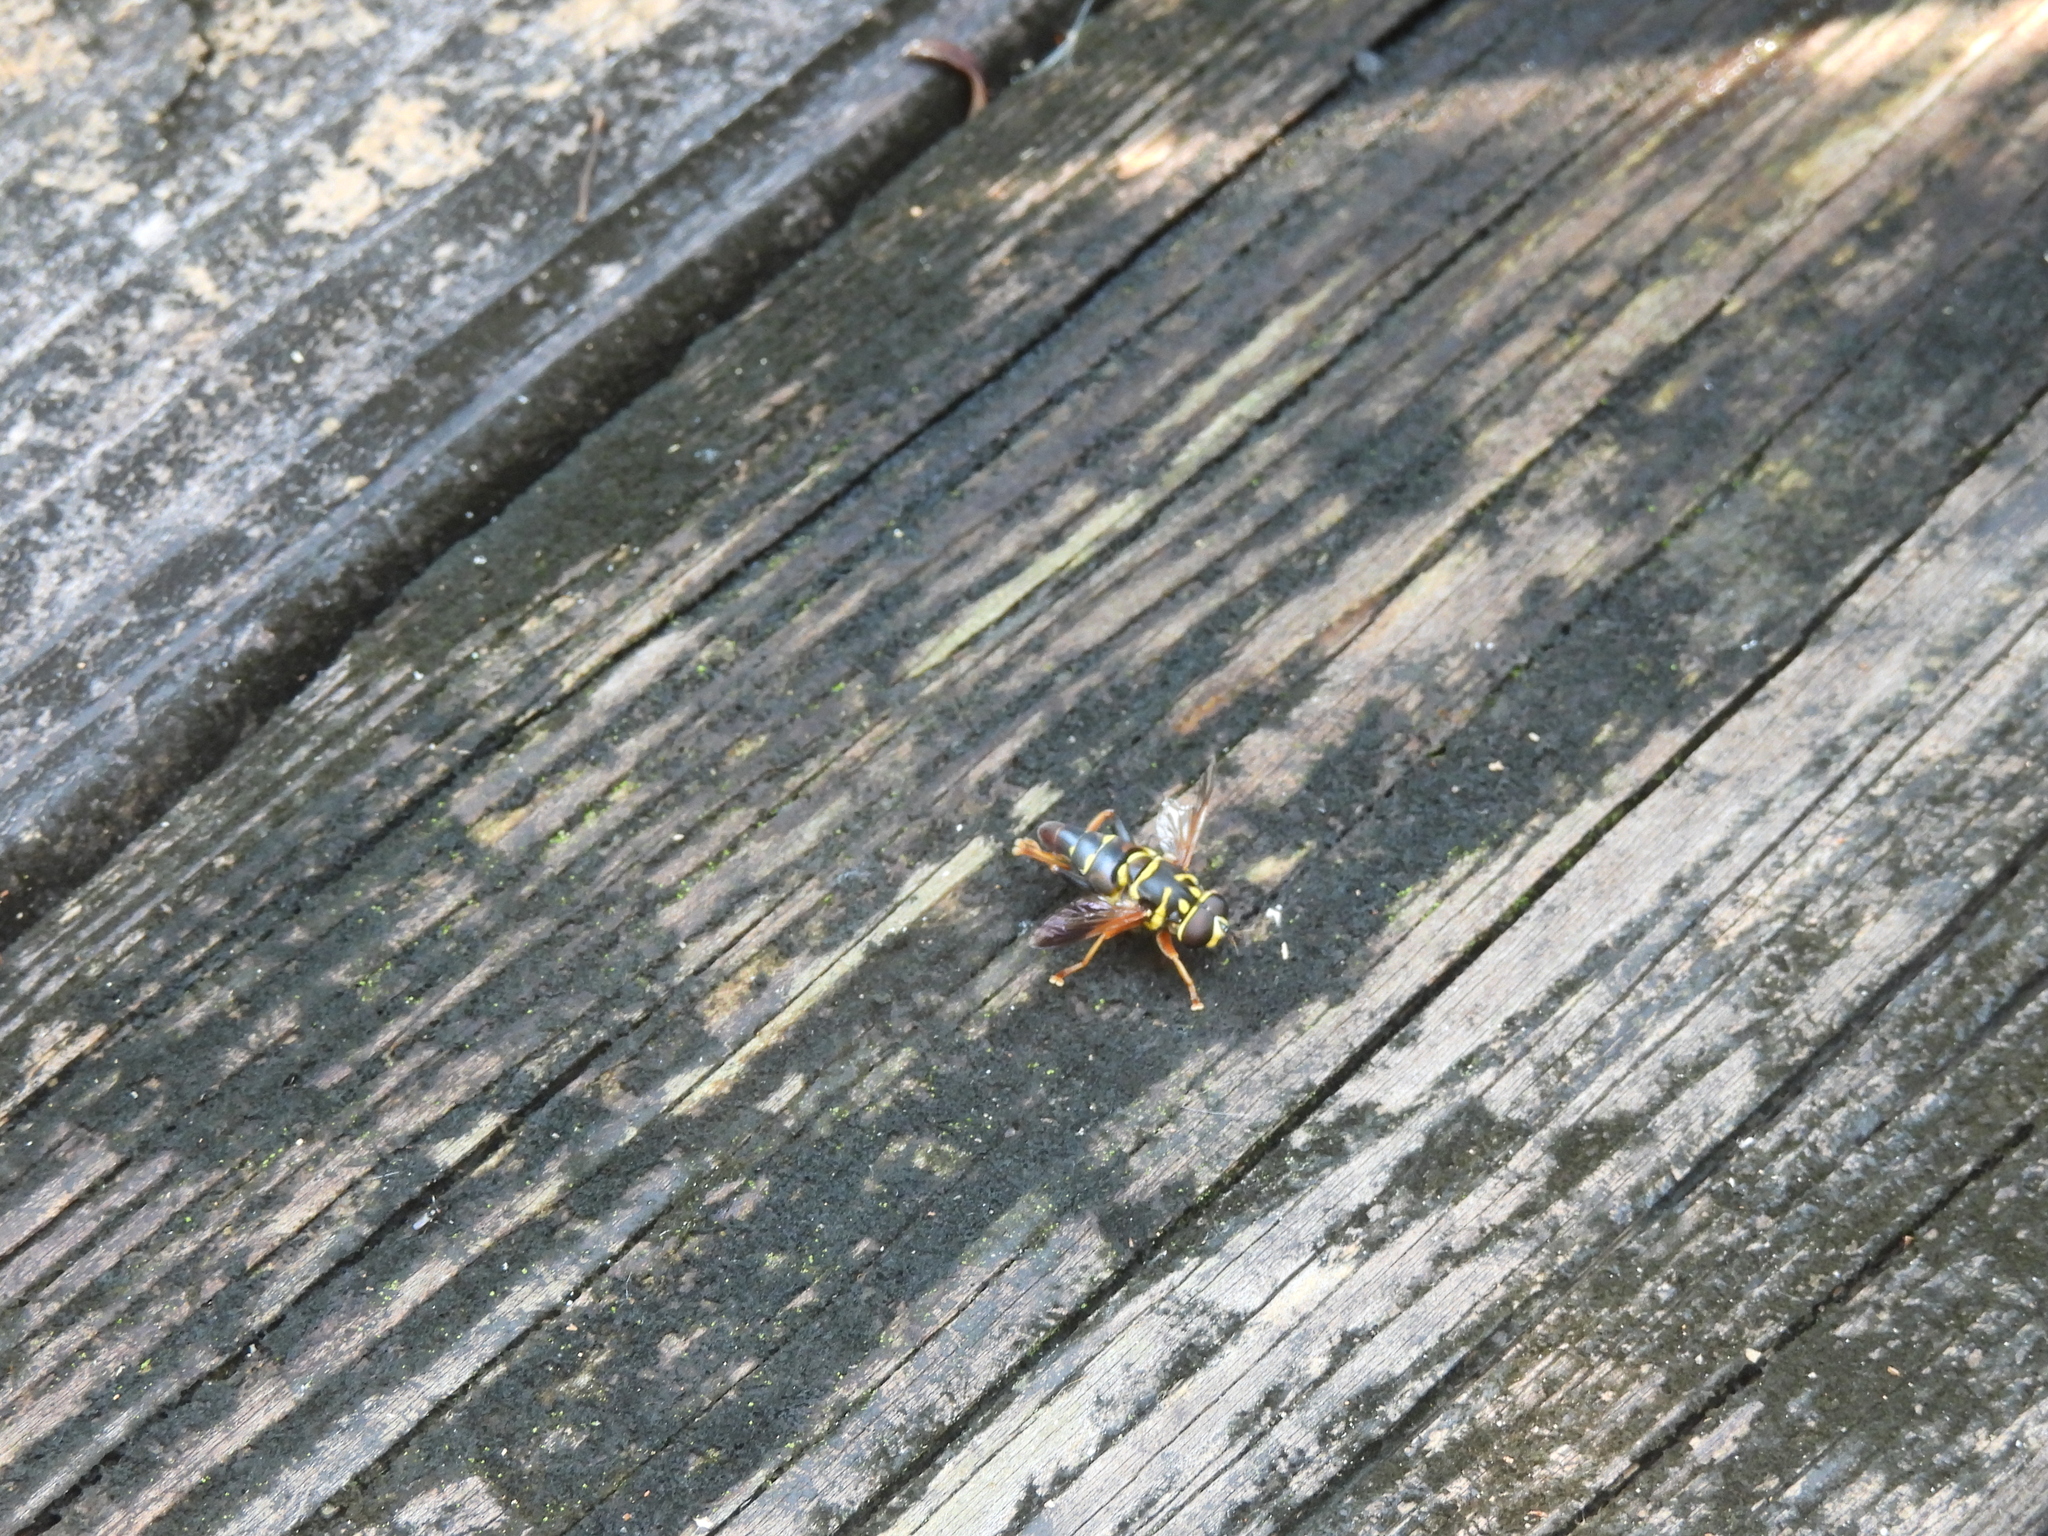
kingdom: Animalia
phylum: Arthropoda
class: Insecta
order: Diptera
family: Syrphidae
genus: Meromacrus
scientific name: Meromacrus acutus
